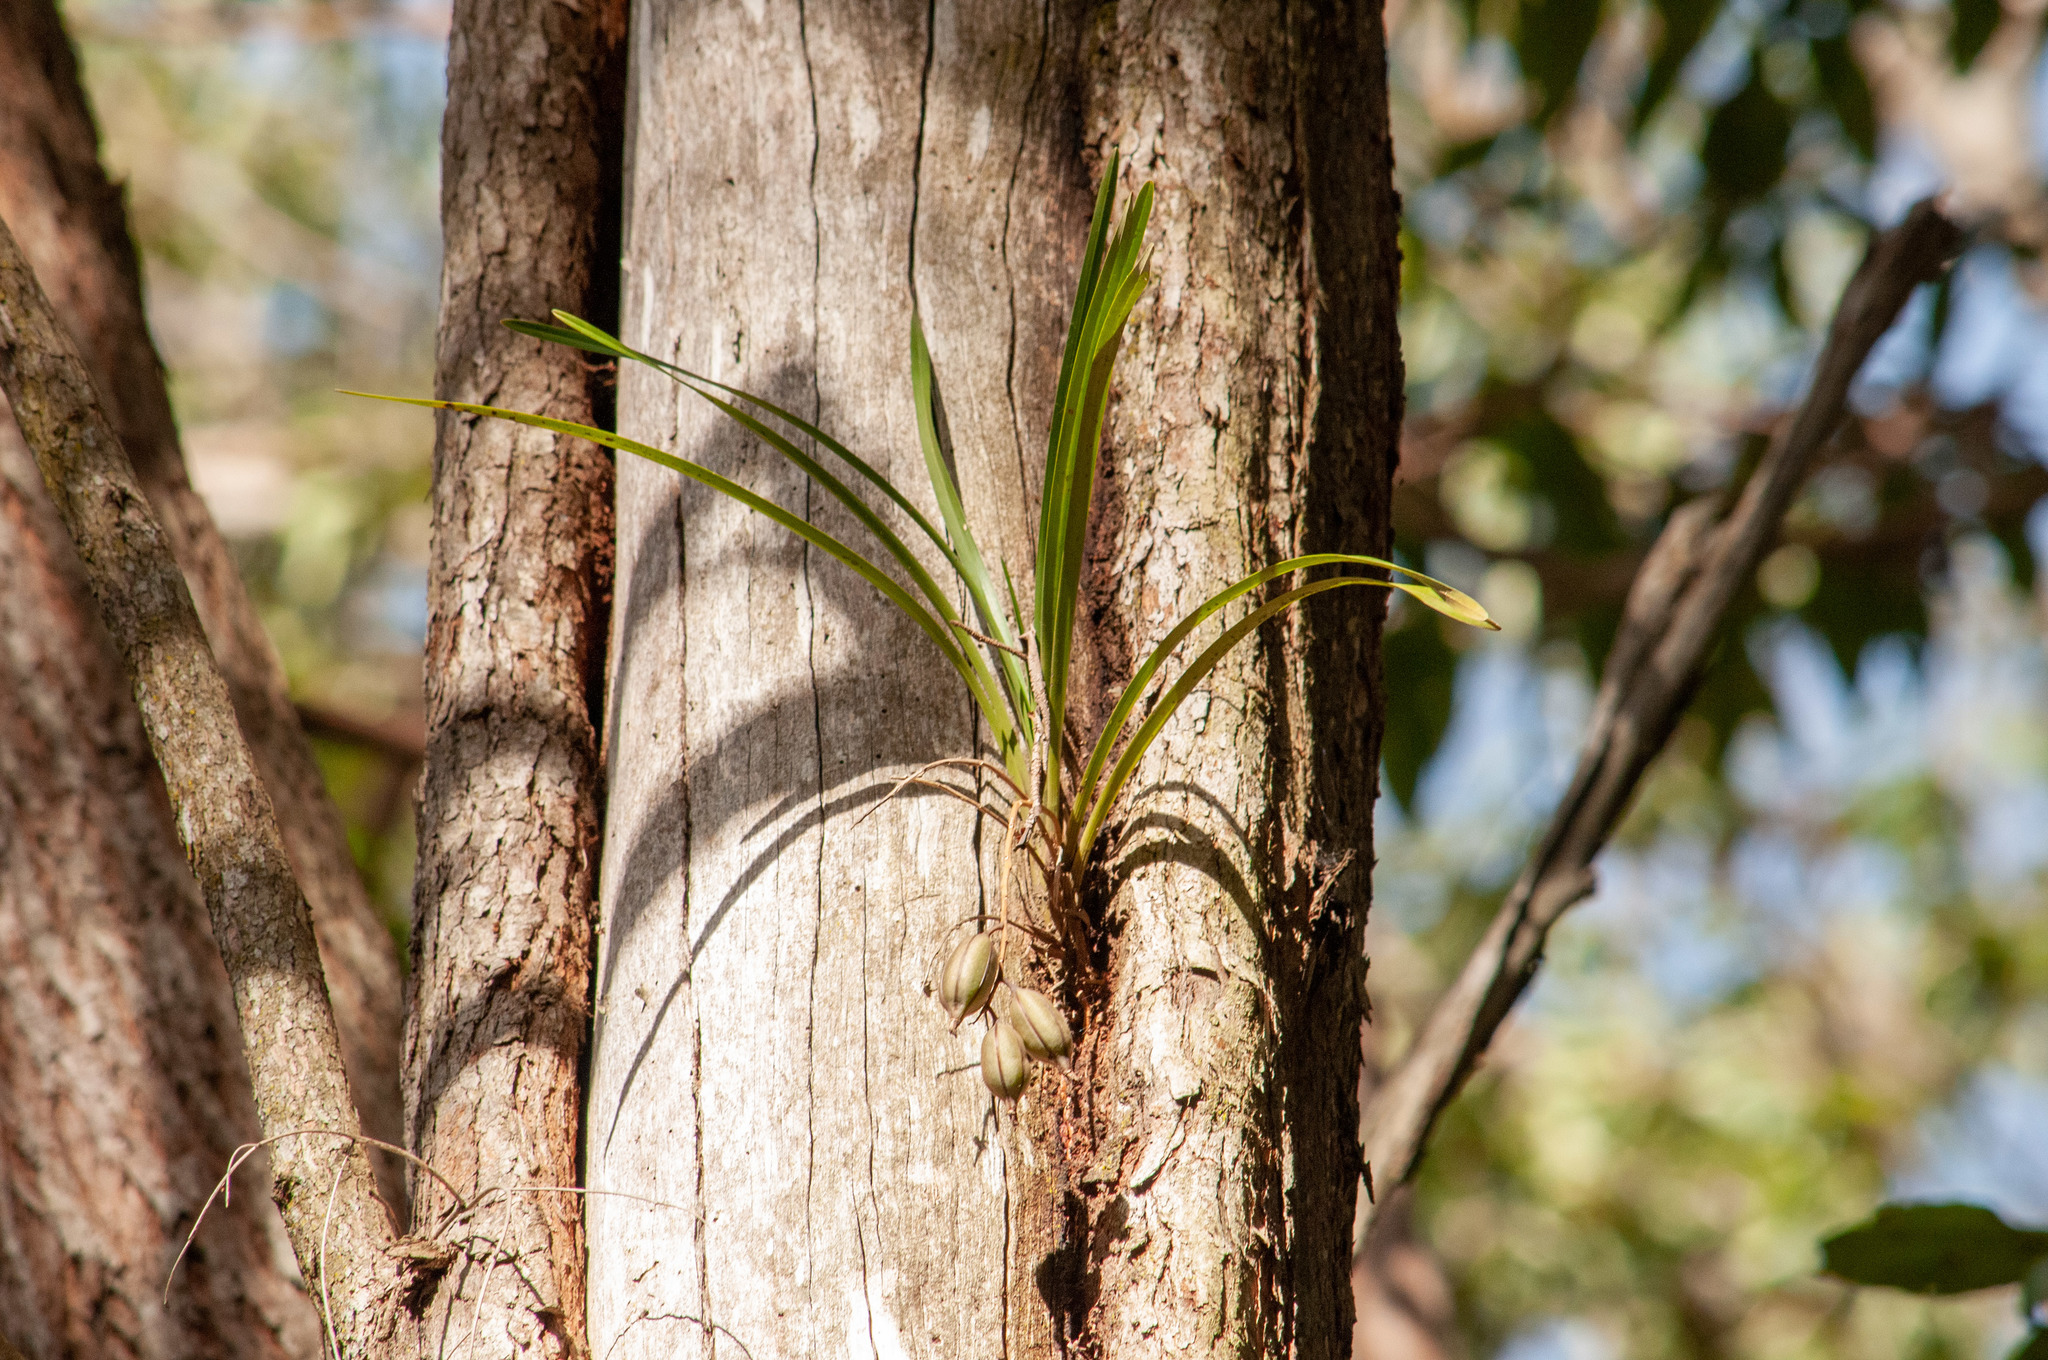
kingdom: Plantae
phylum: Tracheophyta
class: Liliopsida
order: Asparagales
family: Orchidaceae
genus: Cymbidium
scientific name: Cymbidium suave
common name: Snake orchid
